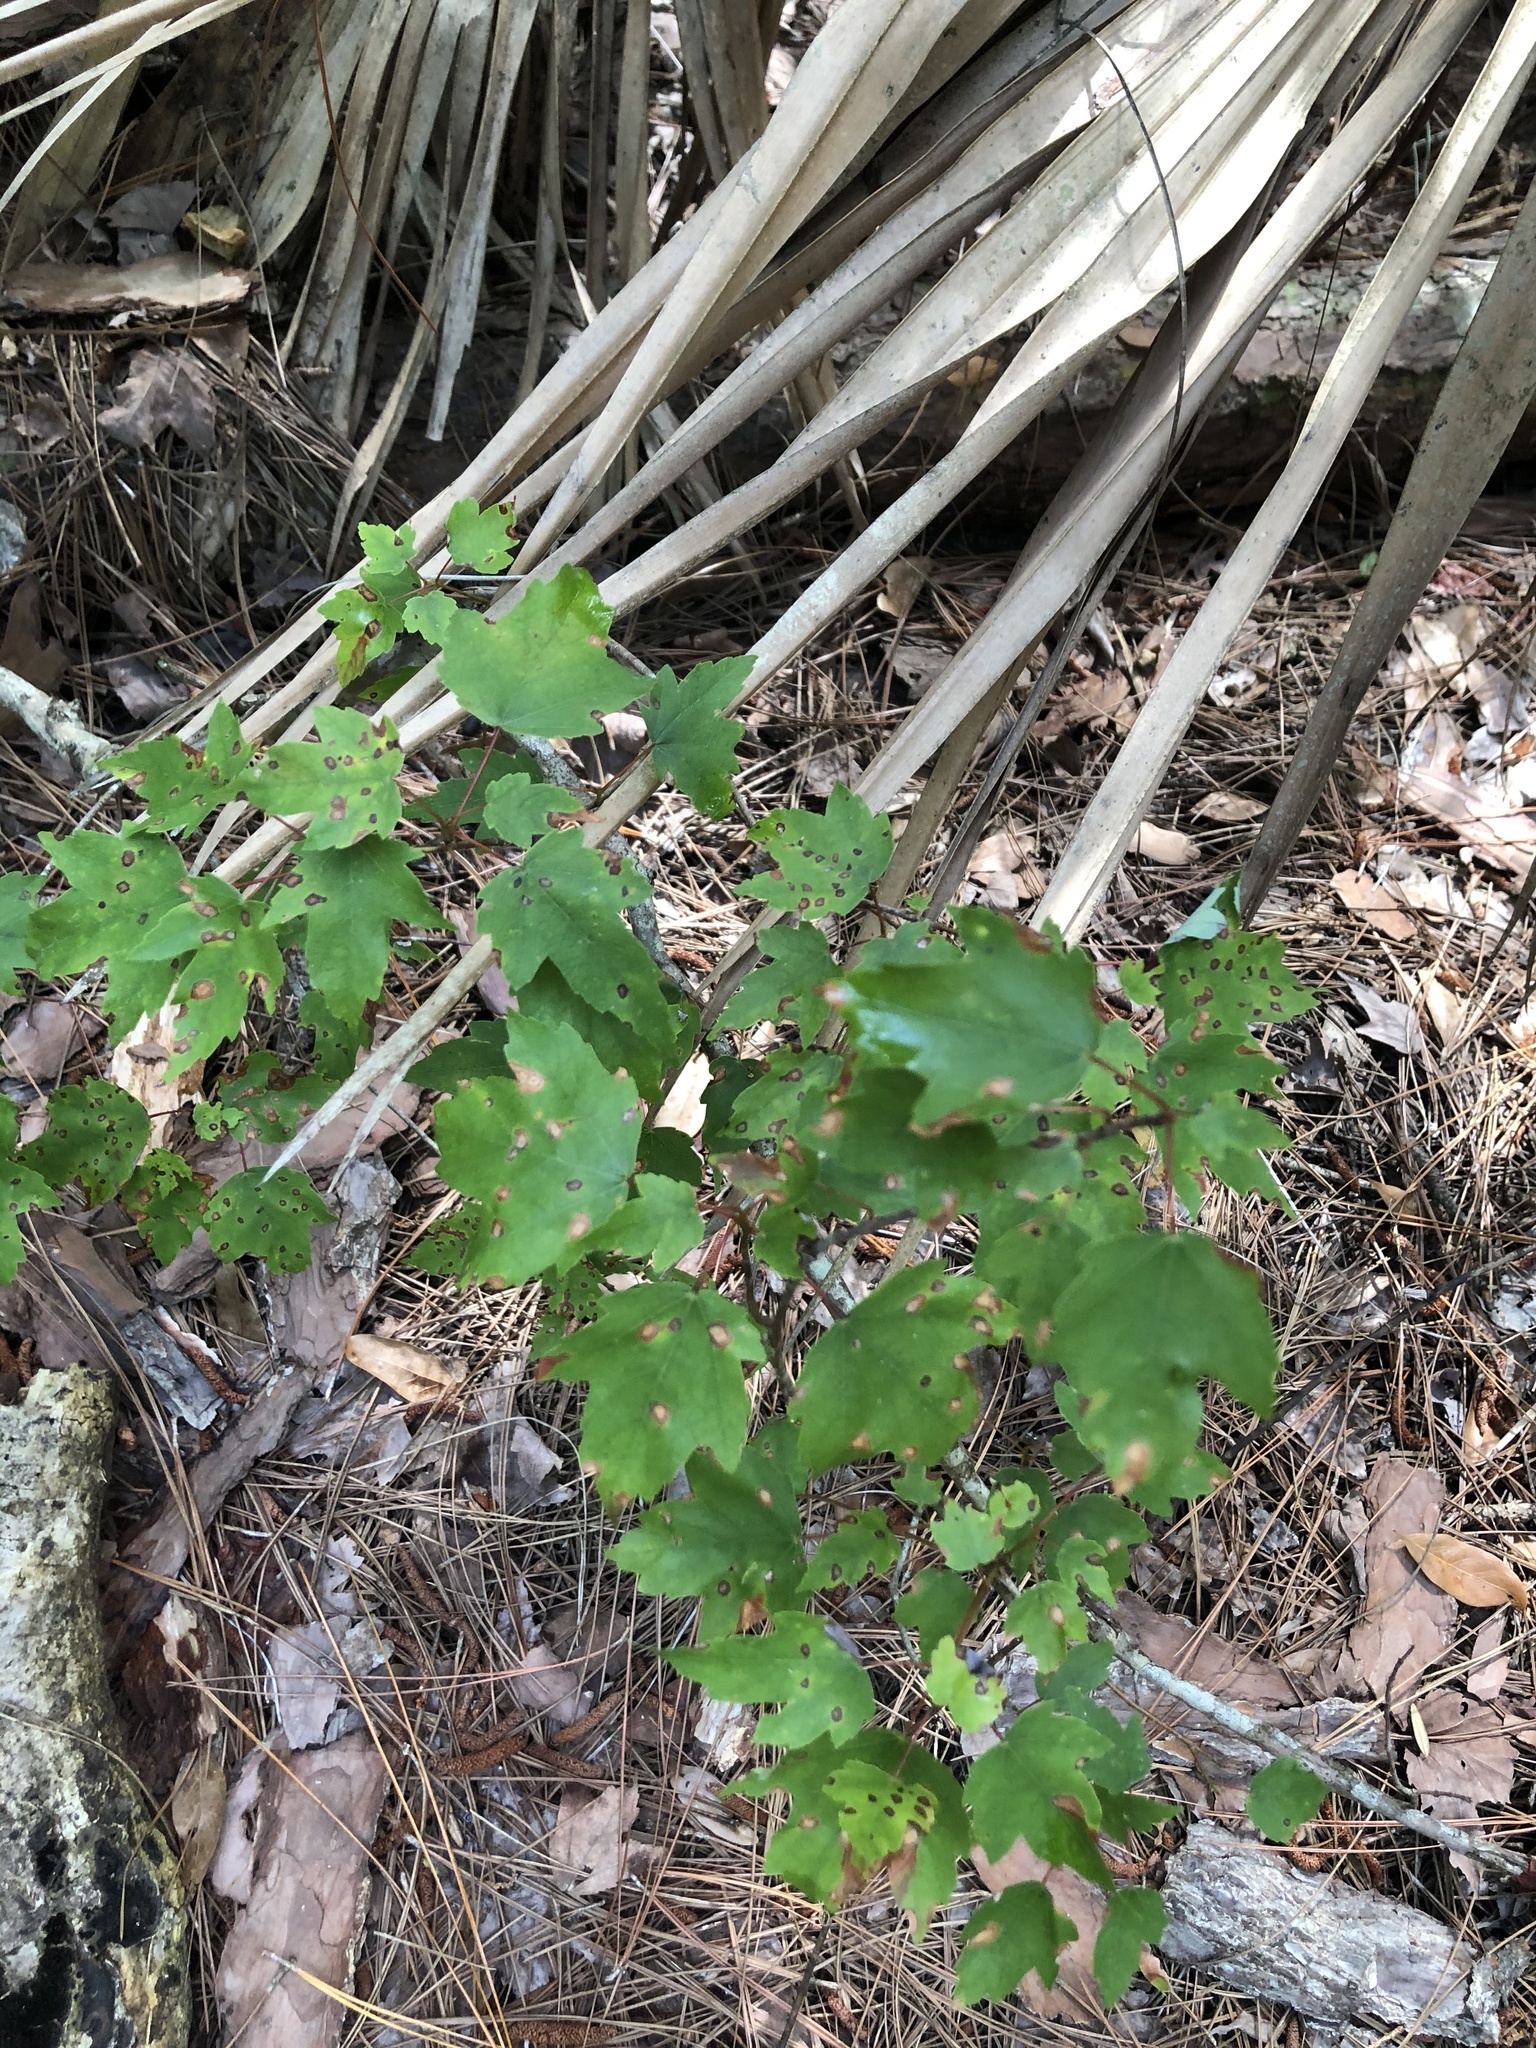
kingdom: Plantae
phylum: Tracheophyta
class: Magnoliopsida
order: Sapindales
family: Sapindaceae
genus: Acer
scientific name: Acer rubrum
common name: Red maple
